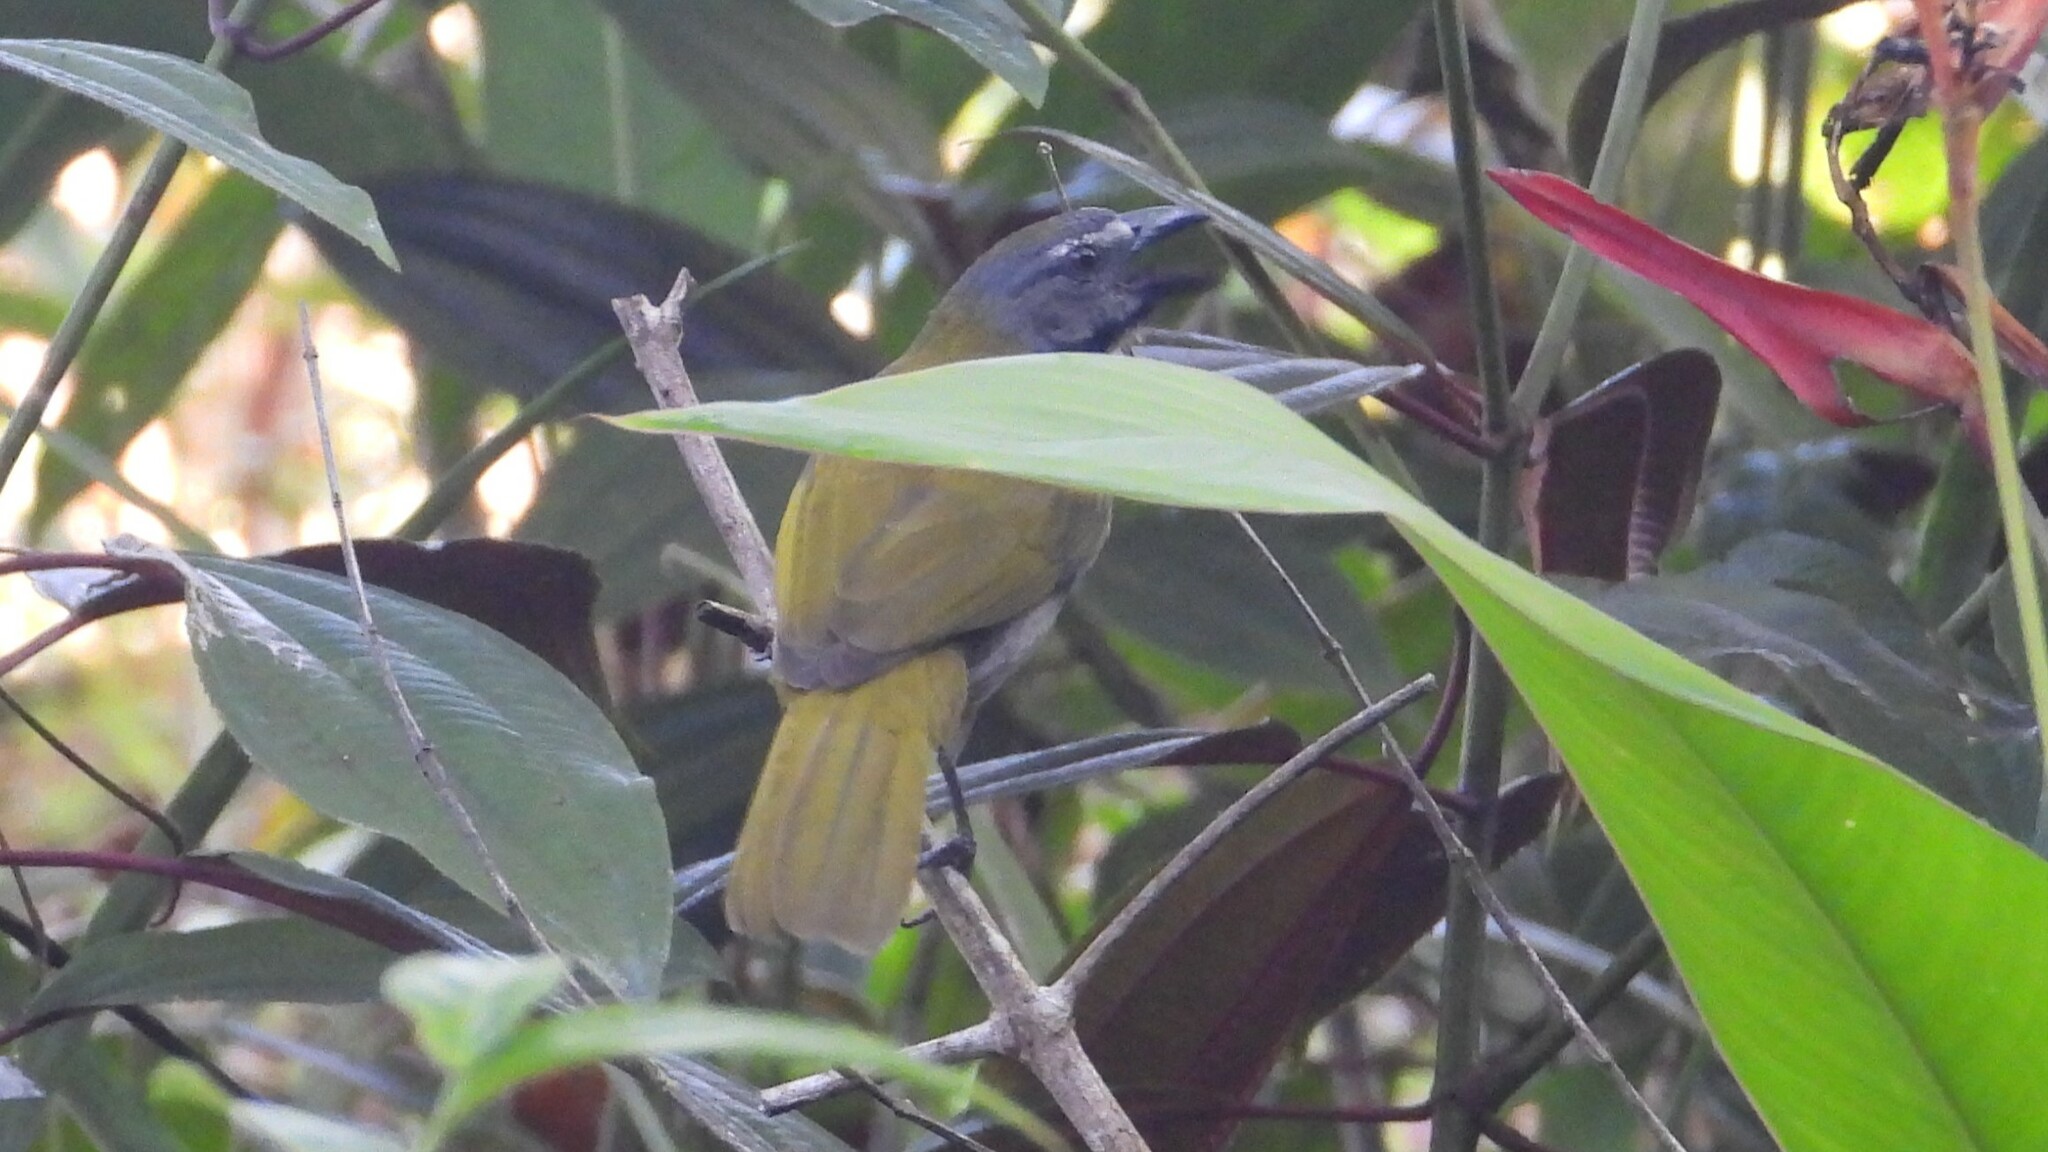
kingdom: Animalia
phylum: Chordata
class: Aves
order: Passeriformes
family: Thraupidae
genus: Saltator
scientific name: Saltator maximus
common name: Buff-throated saltator
